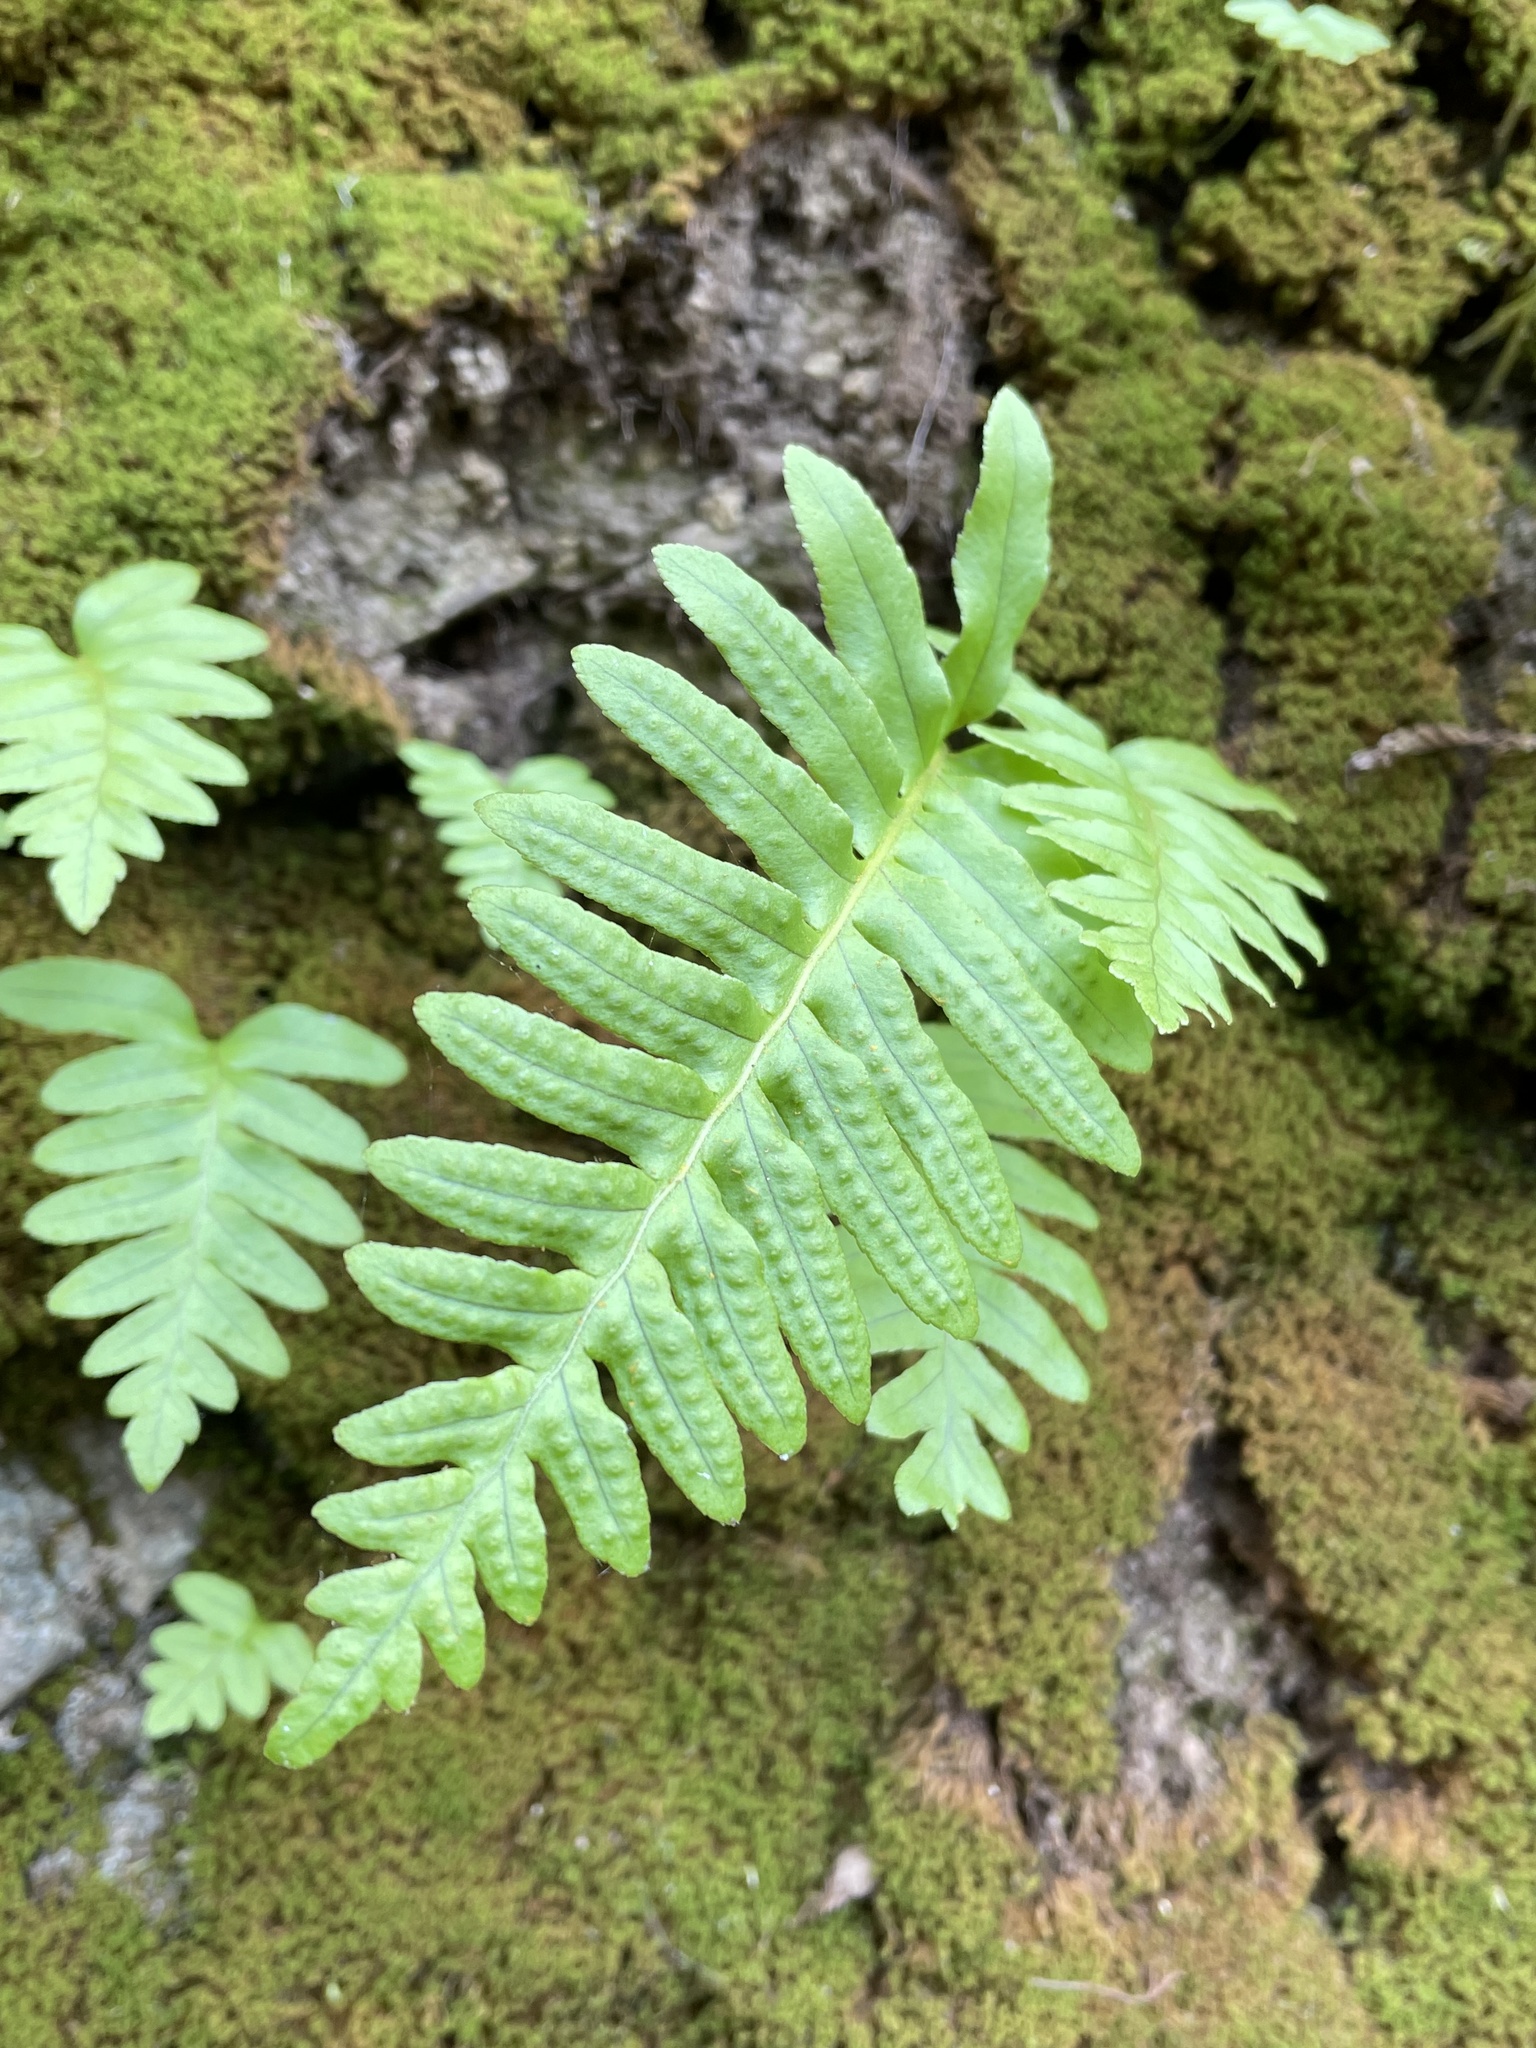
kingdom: Plantae
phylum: Tracheophyta
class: Polypodiopsida
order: Polypodiales
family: Polypodiaceae
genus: Polypodium
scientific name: Polypodium californicum
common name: California polypody
